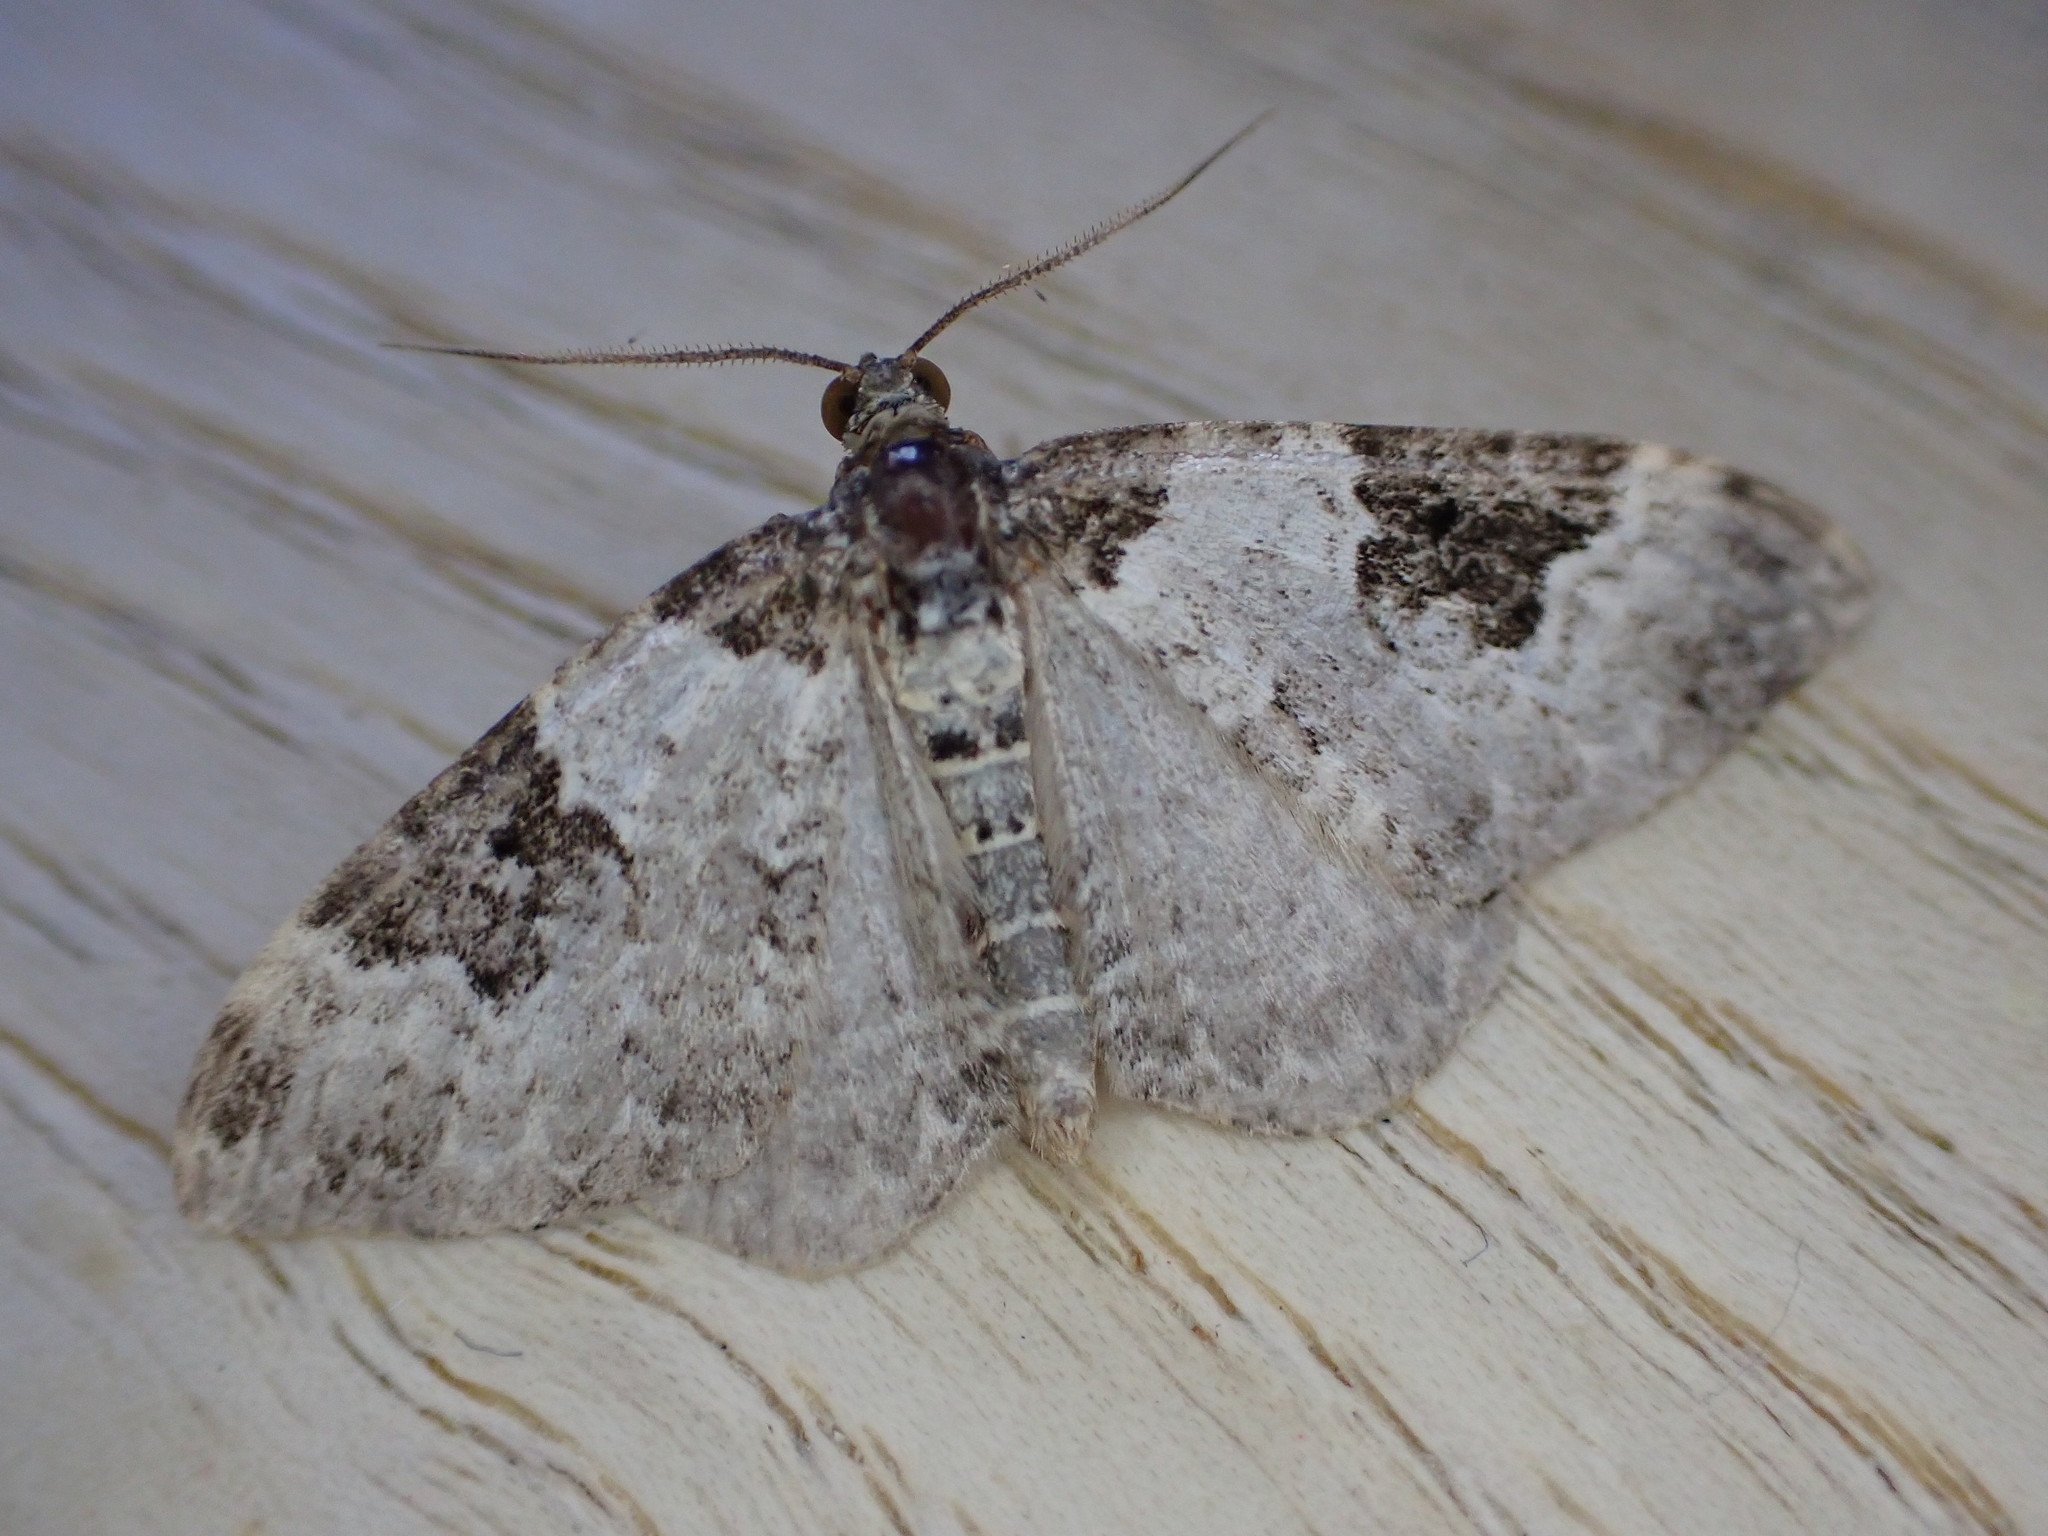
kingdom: Animalia
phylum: Arthropoda
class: Insecta
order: Lepidoptera
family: Geometridae
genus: Xanthorhoe
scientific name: Xanthorhoe fluctuata
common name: Garden carpet
